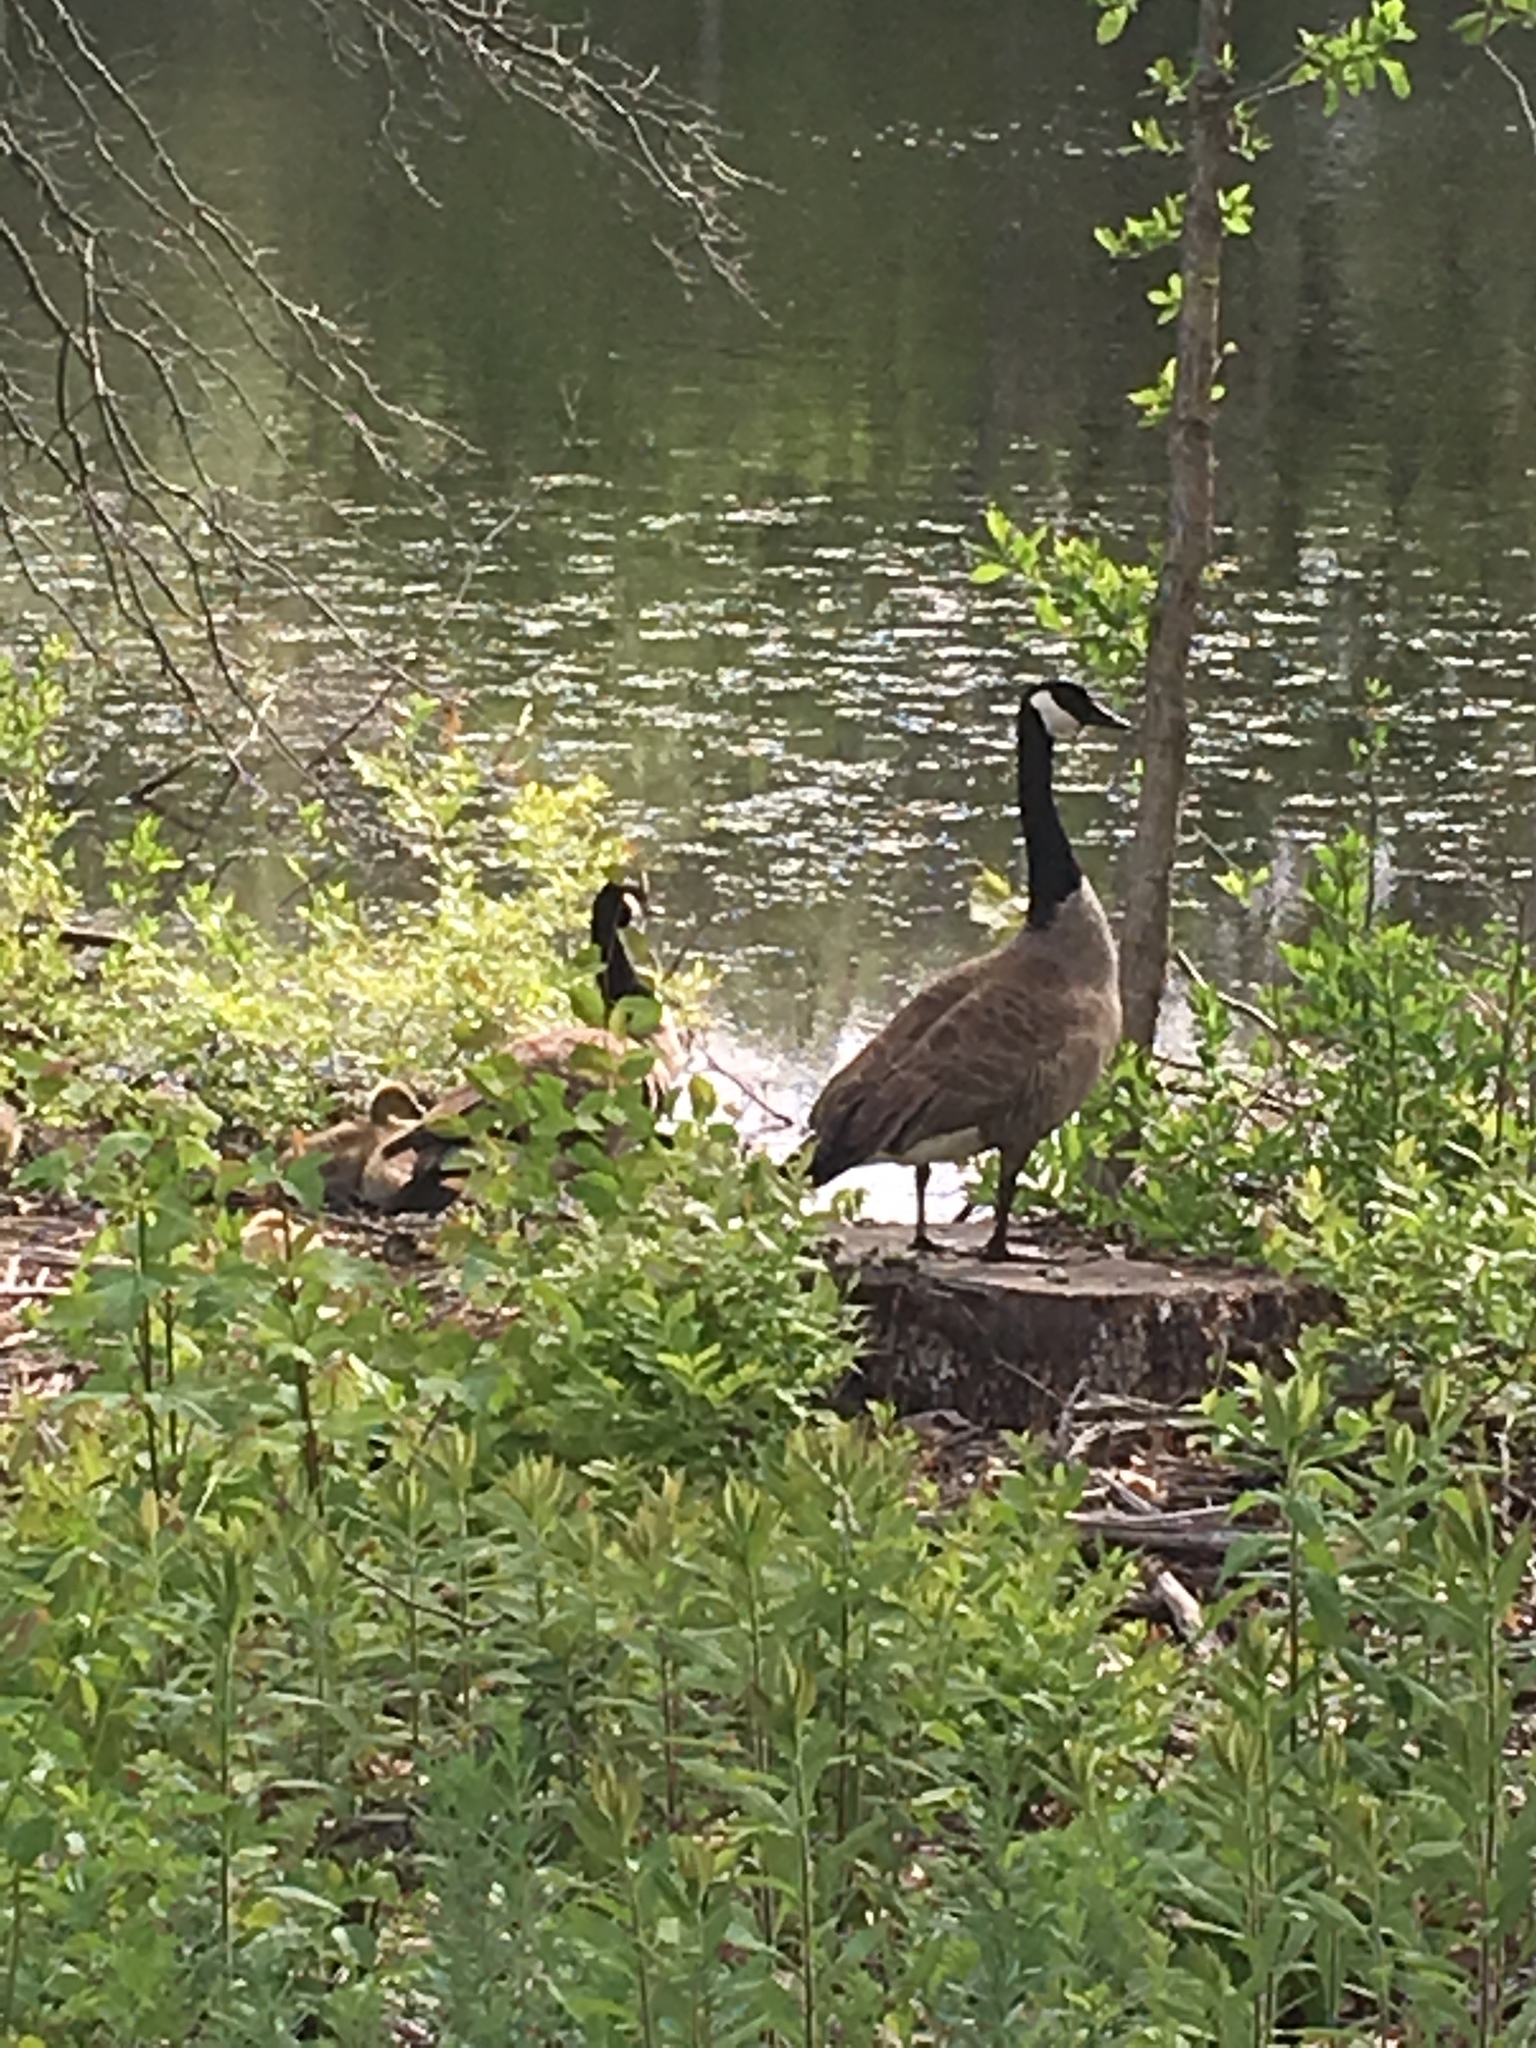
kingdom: Animalia
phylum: Chordata
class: Aves
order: Anseriformes
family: Anatidae
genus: Branta
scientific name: Branta canadensis
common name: Canada goose
